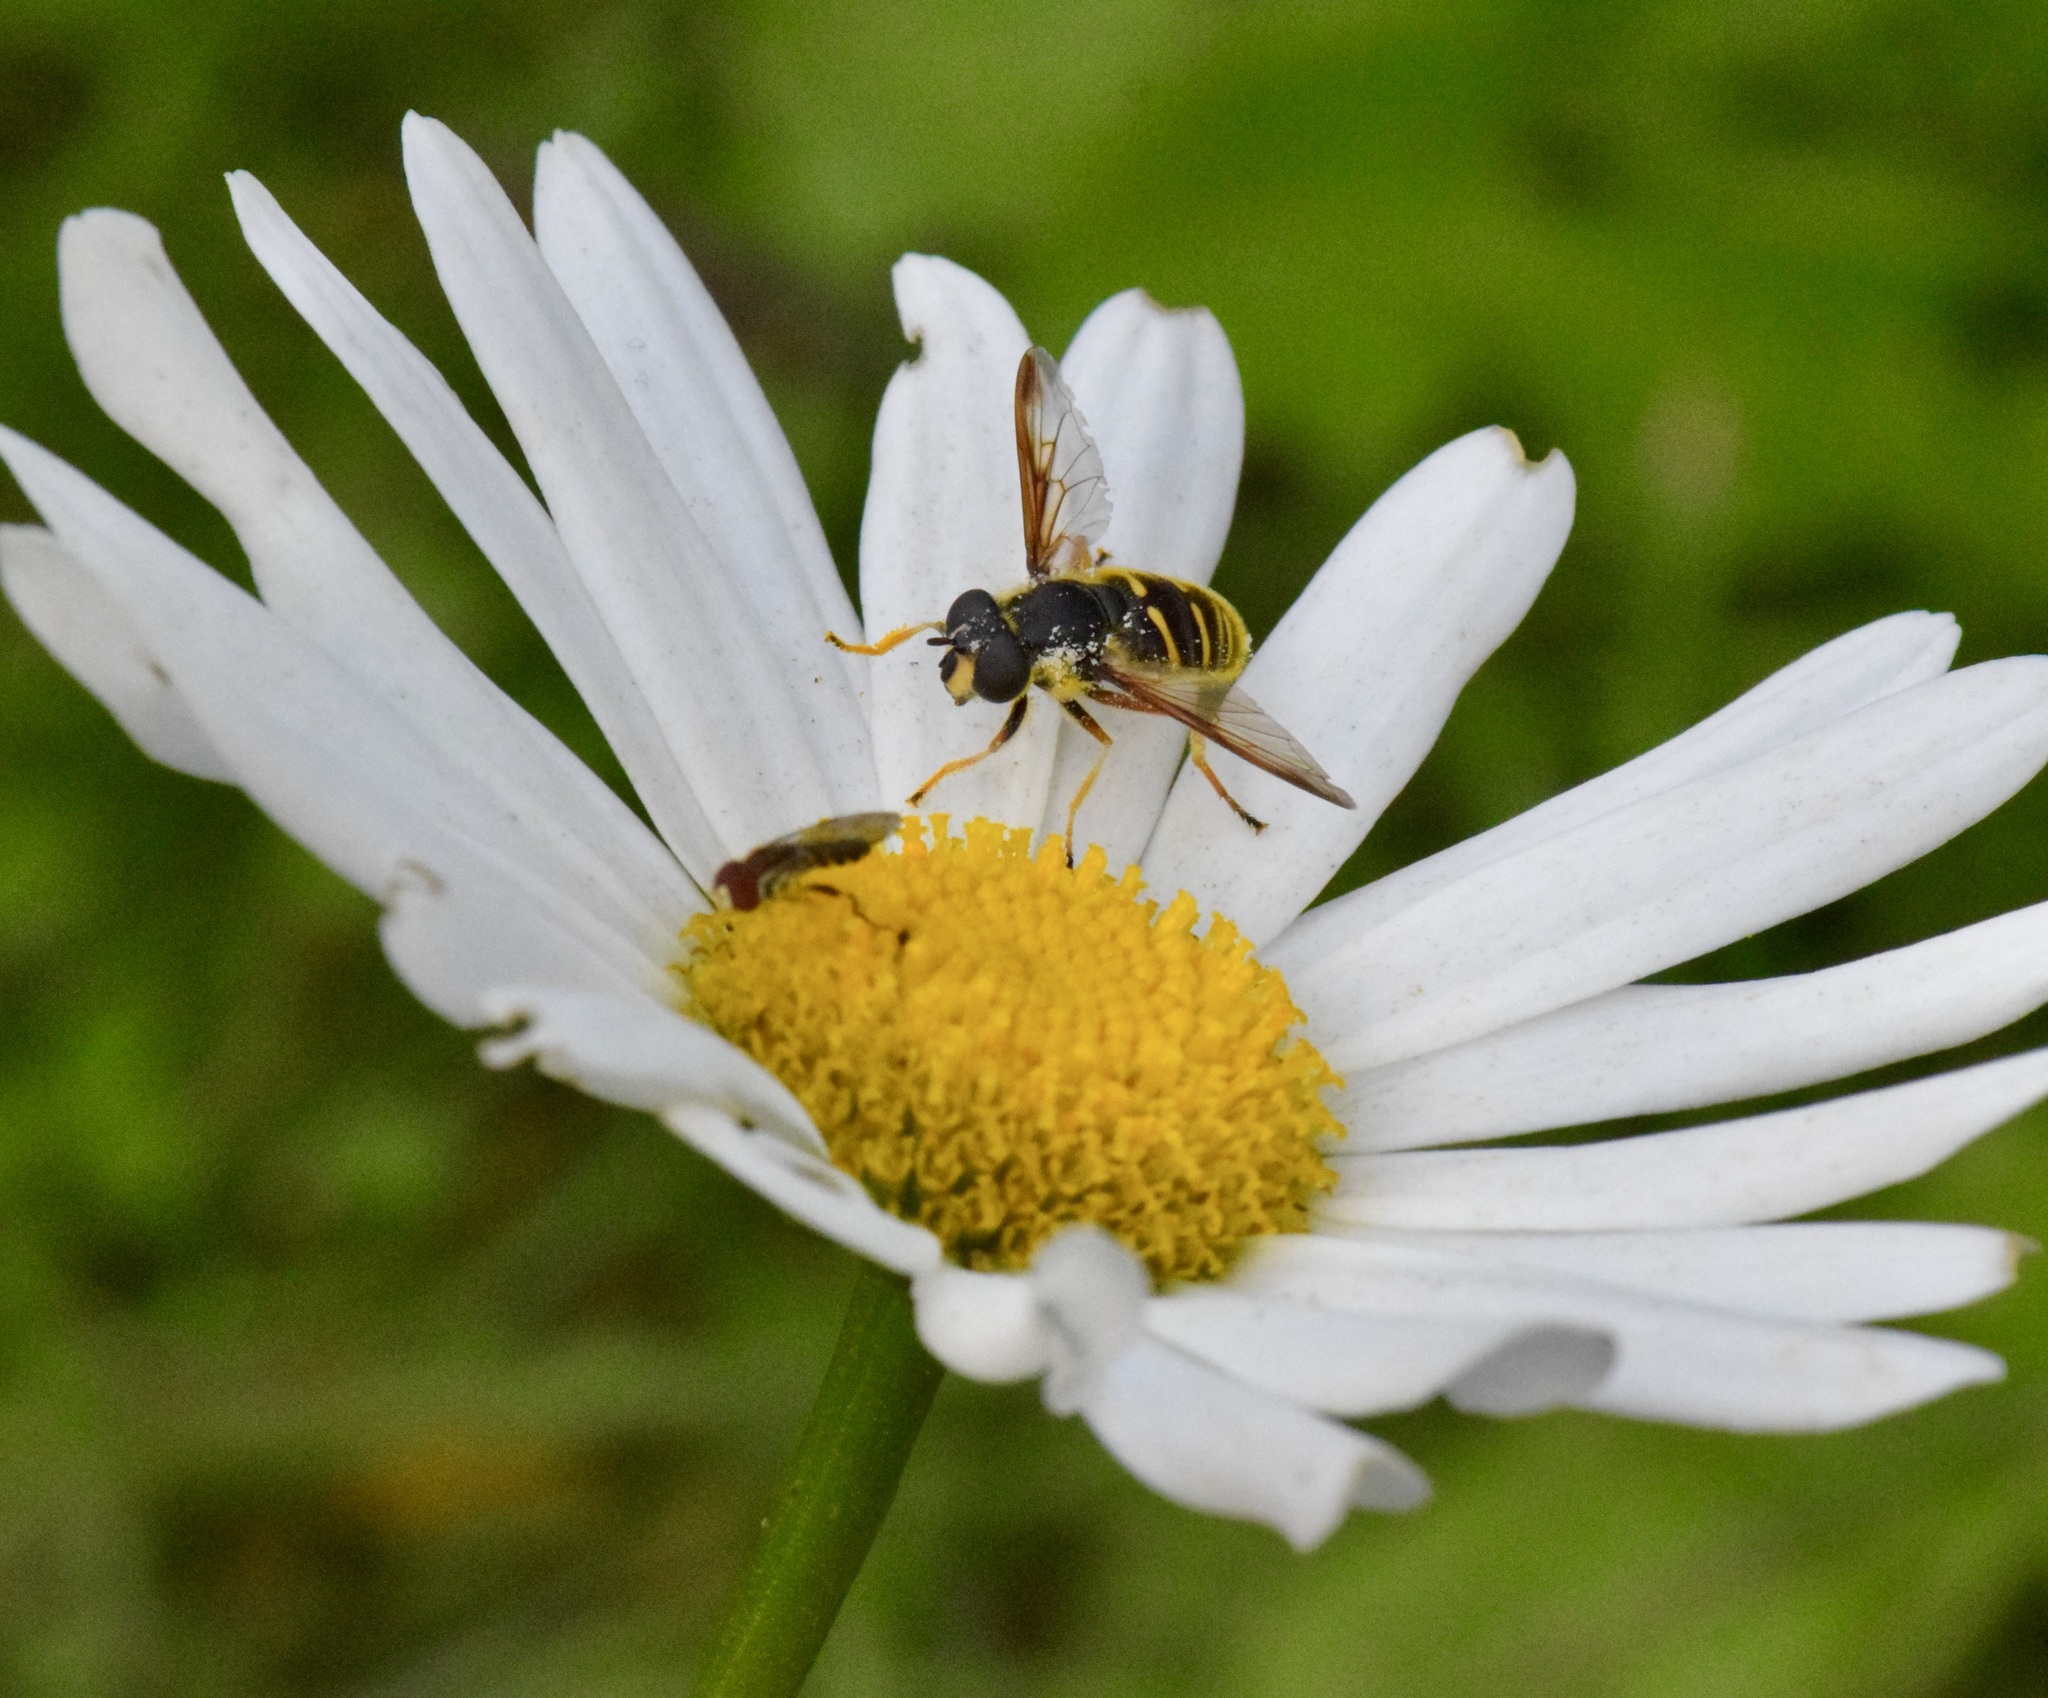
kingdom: Animalia
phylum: Arthropoda
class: Insecta
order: Diptera
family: Syrphidae
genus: Sericomyia
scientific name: Sericomyia chrysotoxoides
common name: Oblique-banded pond fly
